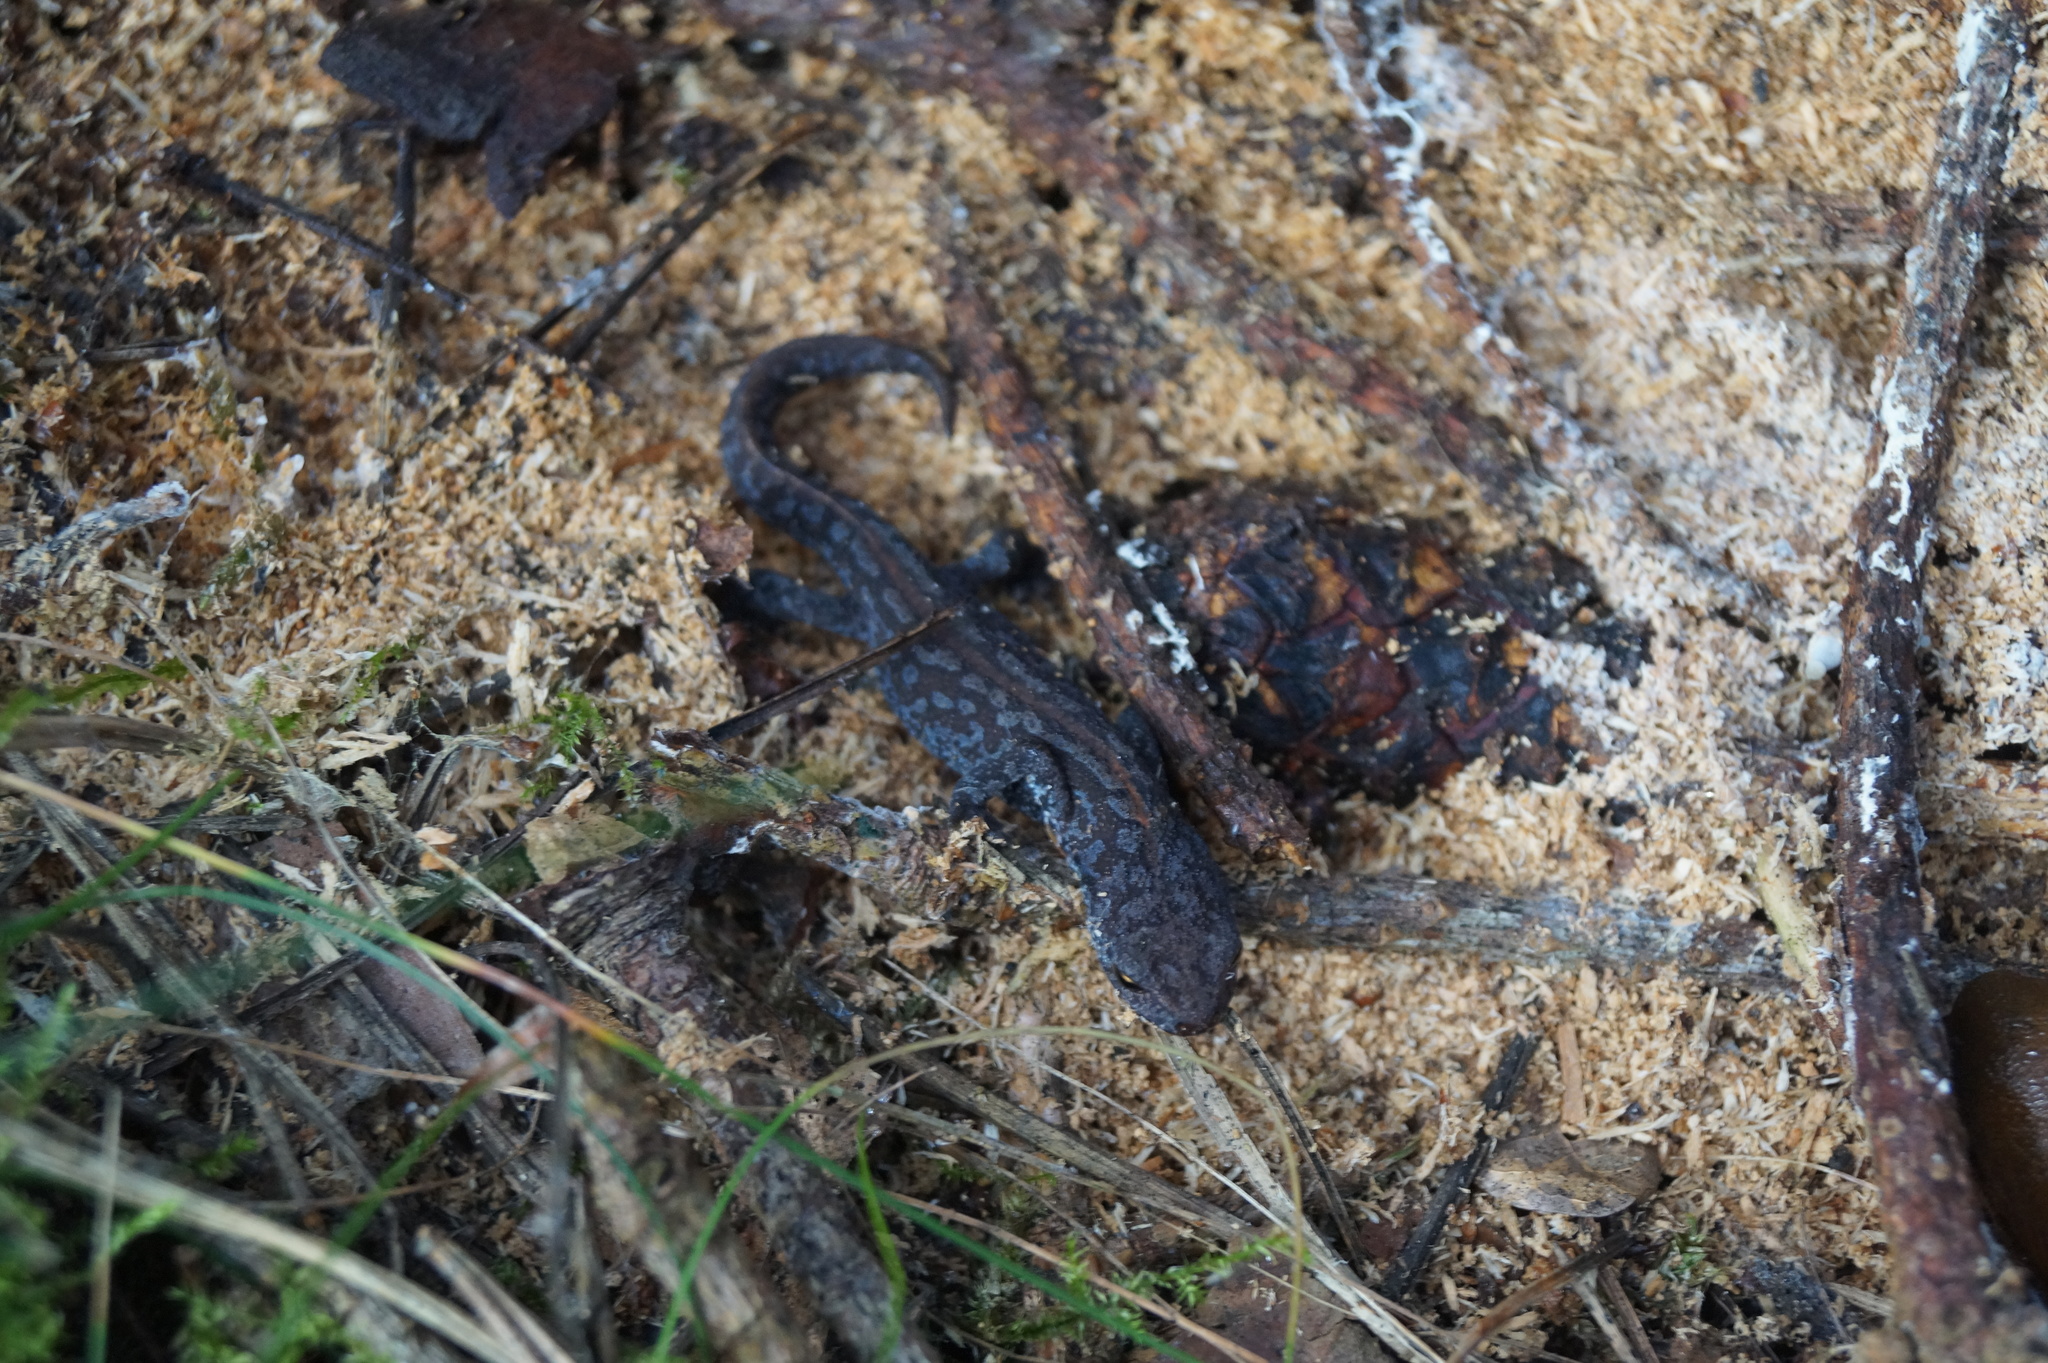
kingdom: Animalia
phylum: Chordata
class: Amphibia
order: Caudata
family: Salamandridae
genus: Ichthyosaura
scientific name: Ichthyosaura alpestris
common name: Alpine newt
